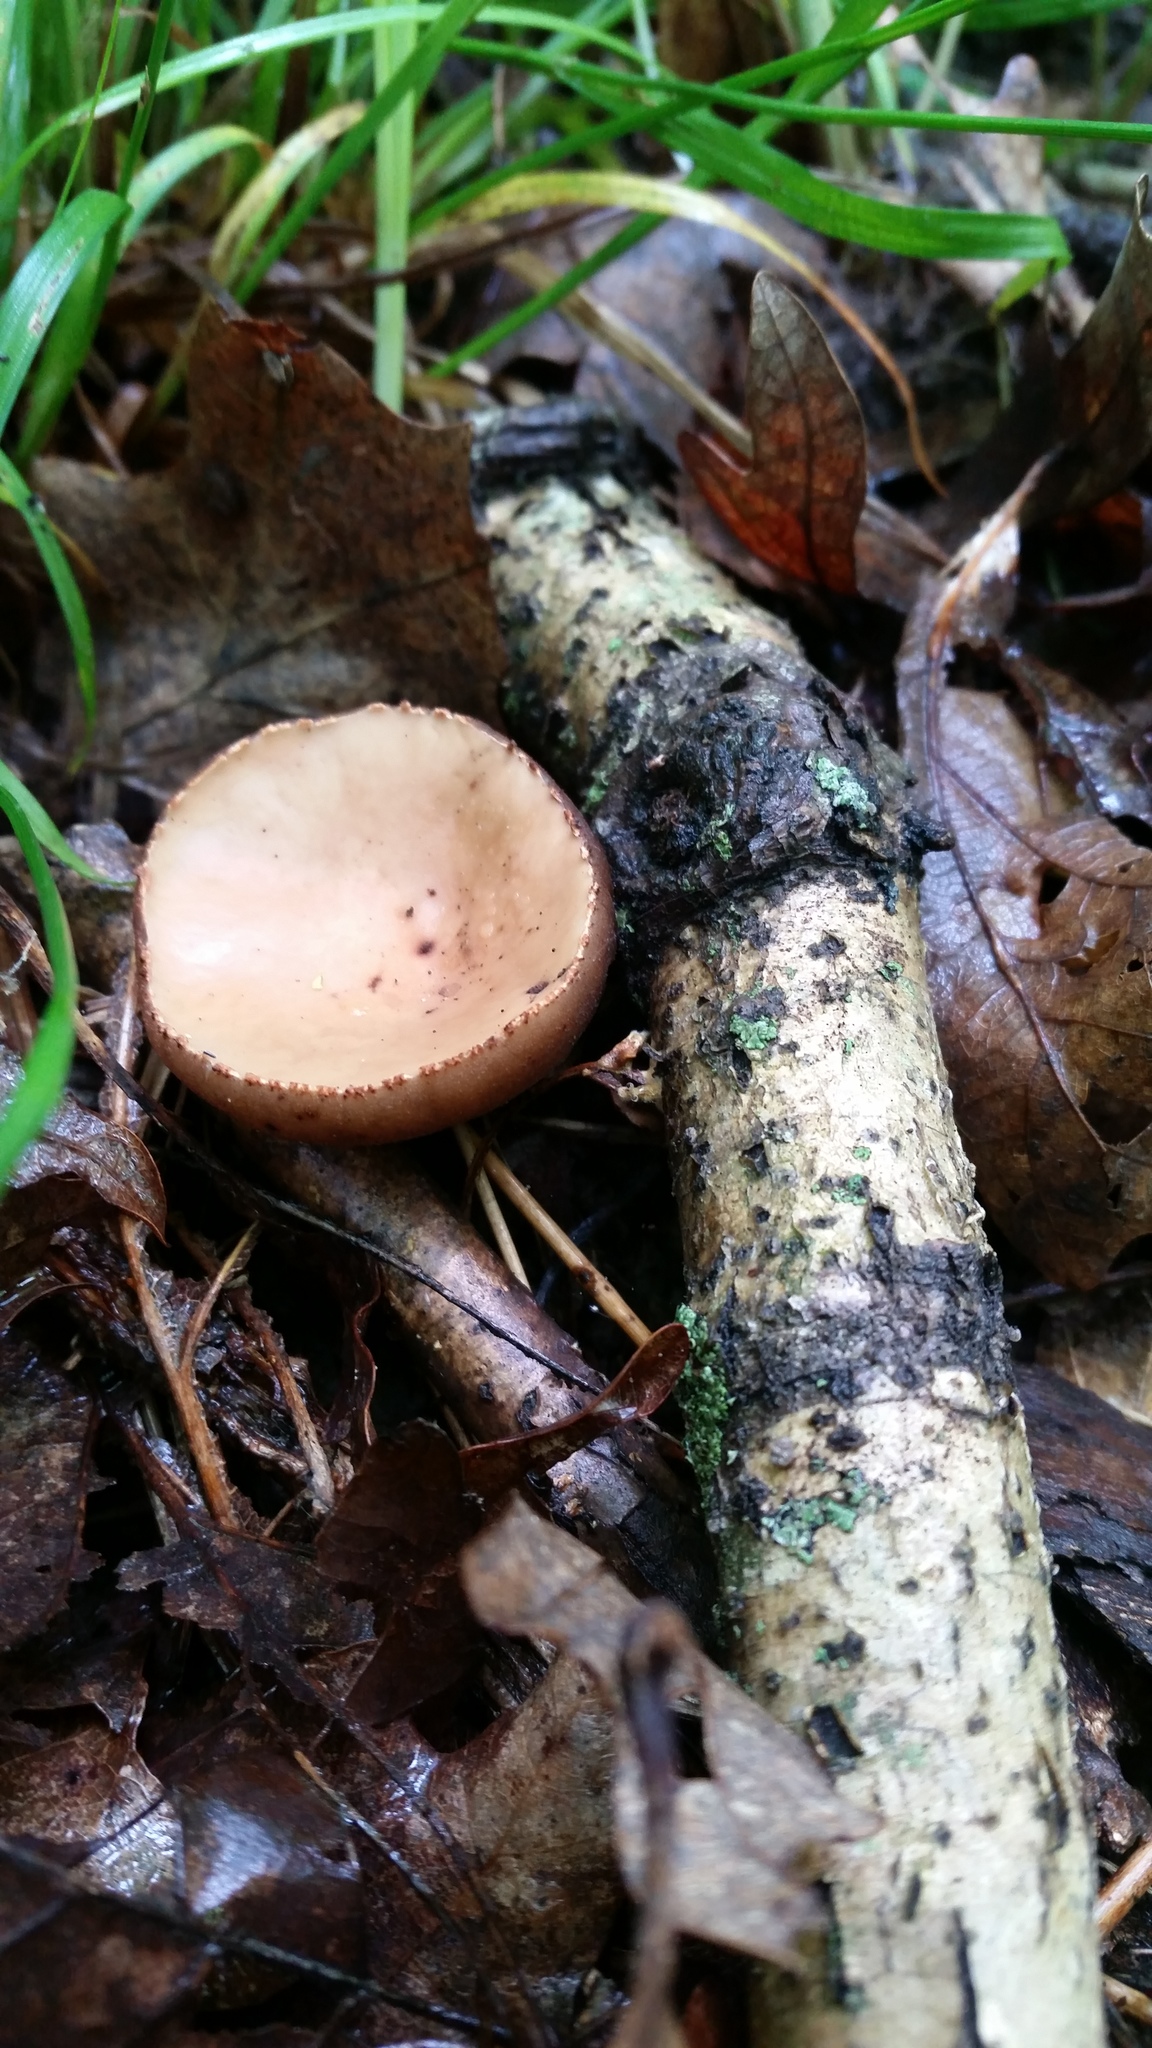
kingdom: Fungi
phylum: Ascomycota
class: Pezizomycetes
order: Pezizales
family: Sarcosomataceae
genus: Galiella
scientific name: Galiella rufa
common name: Hairy rubber cup
